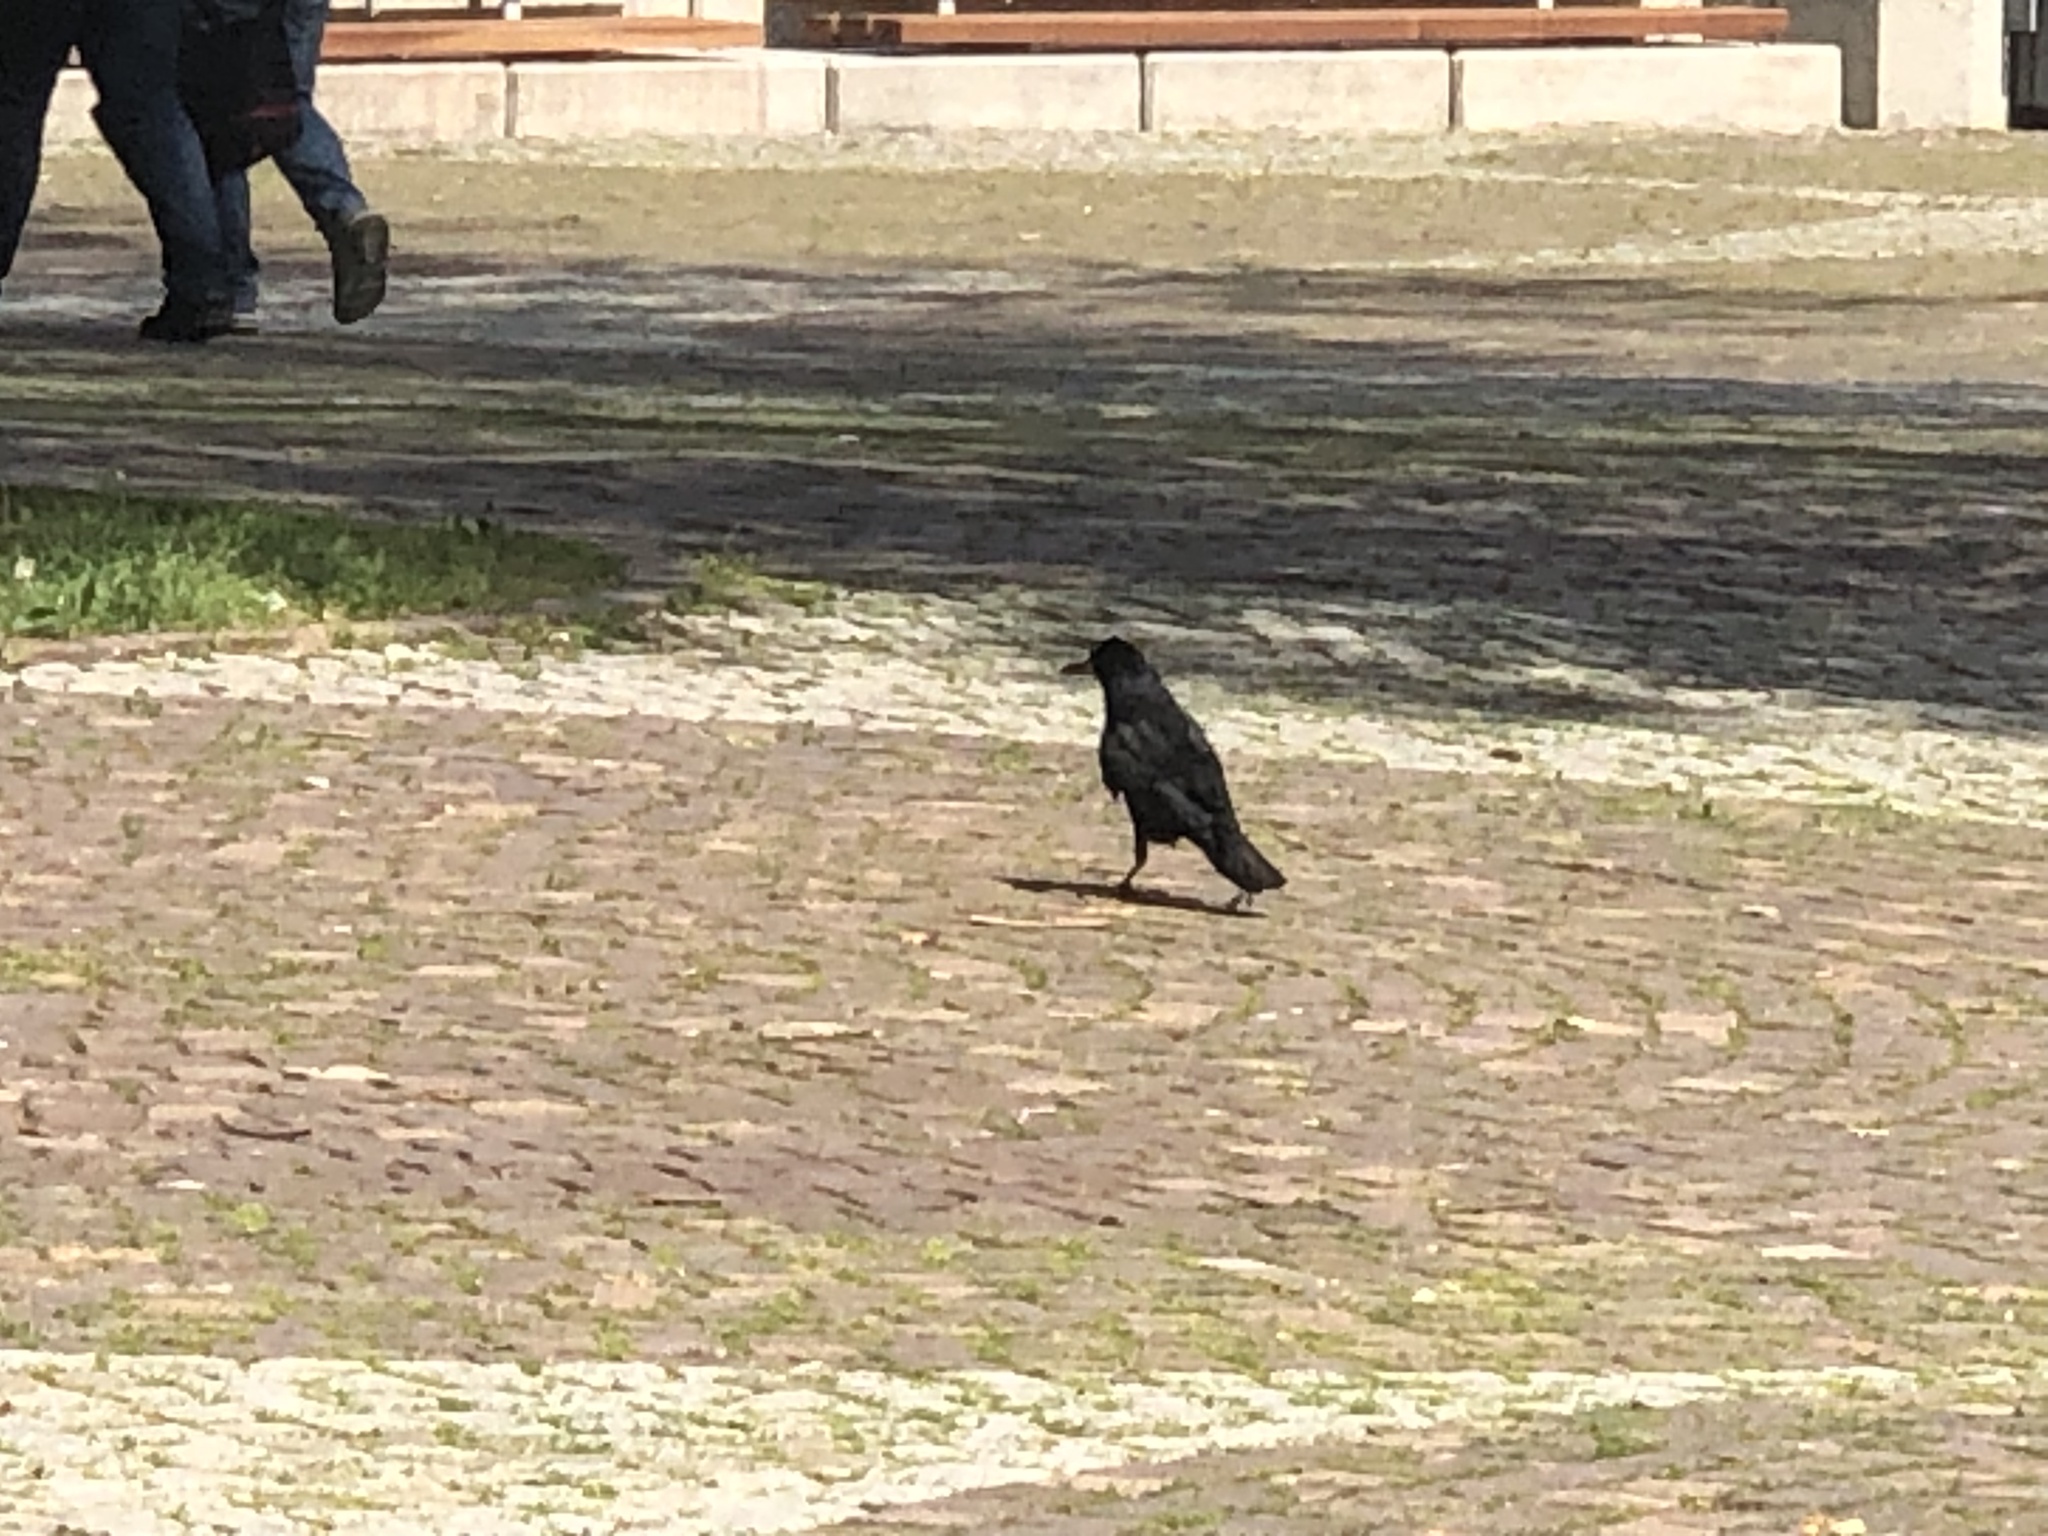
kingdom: Animalia
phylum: Chordata
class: Aves
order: Passeriformes
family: Corvidae
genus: Corvus
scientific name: Corvus frugilegus
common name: Rook
